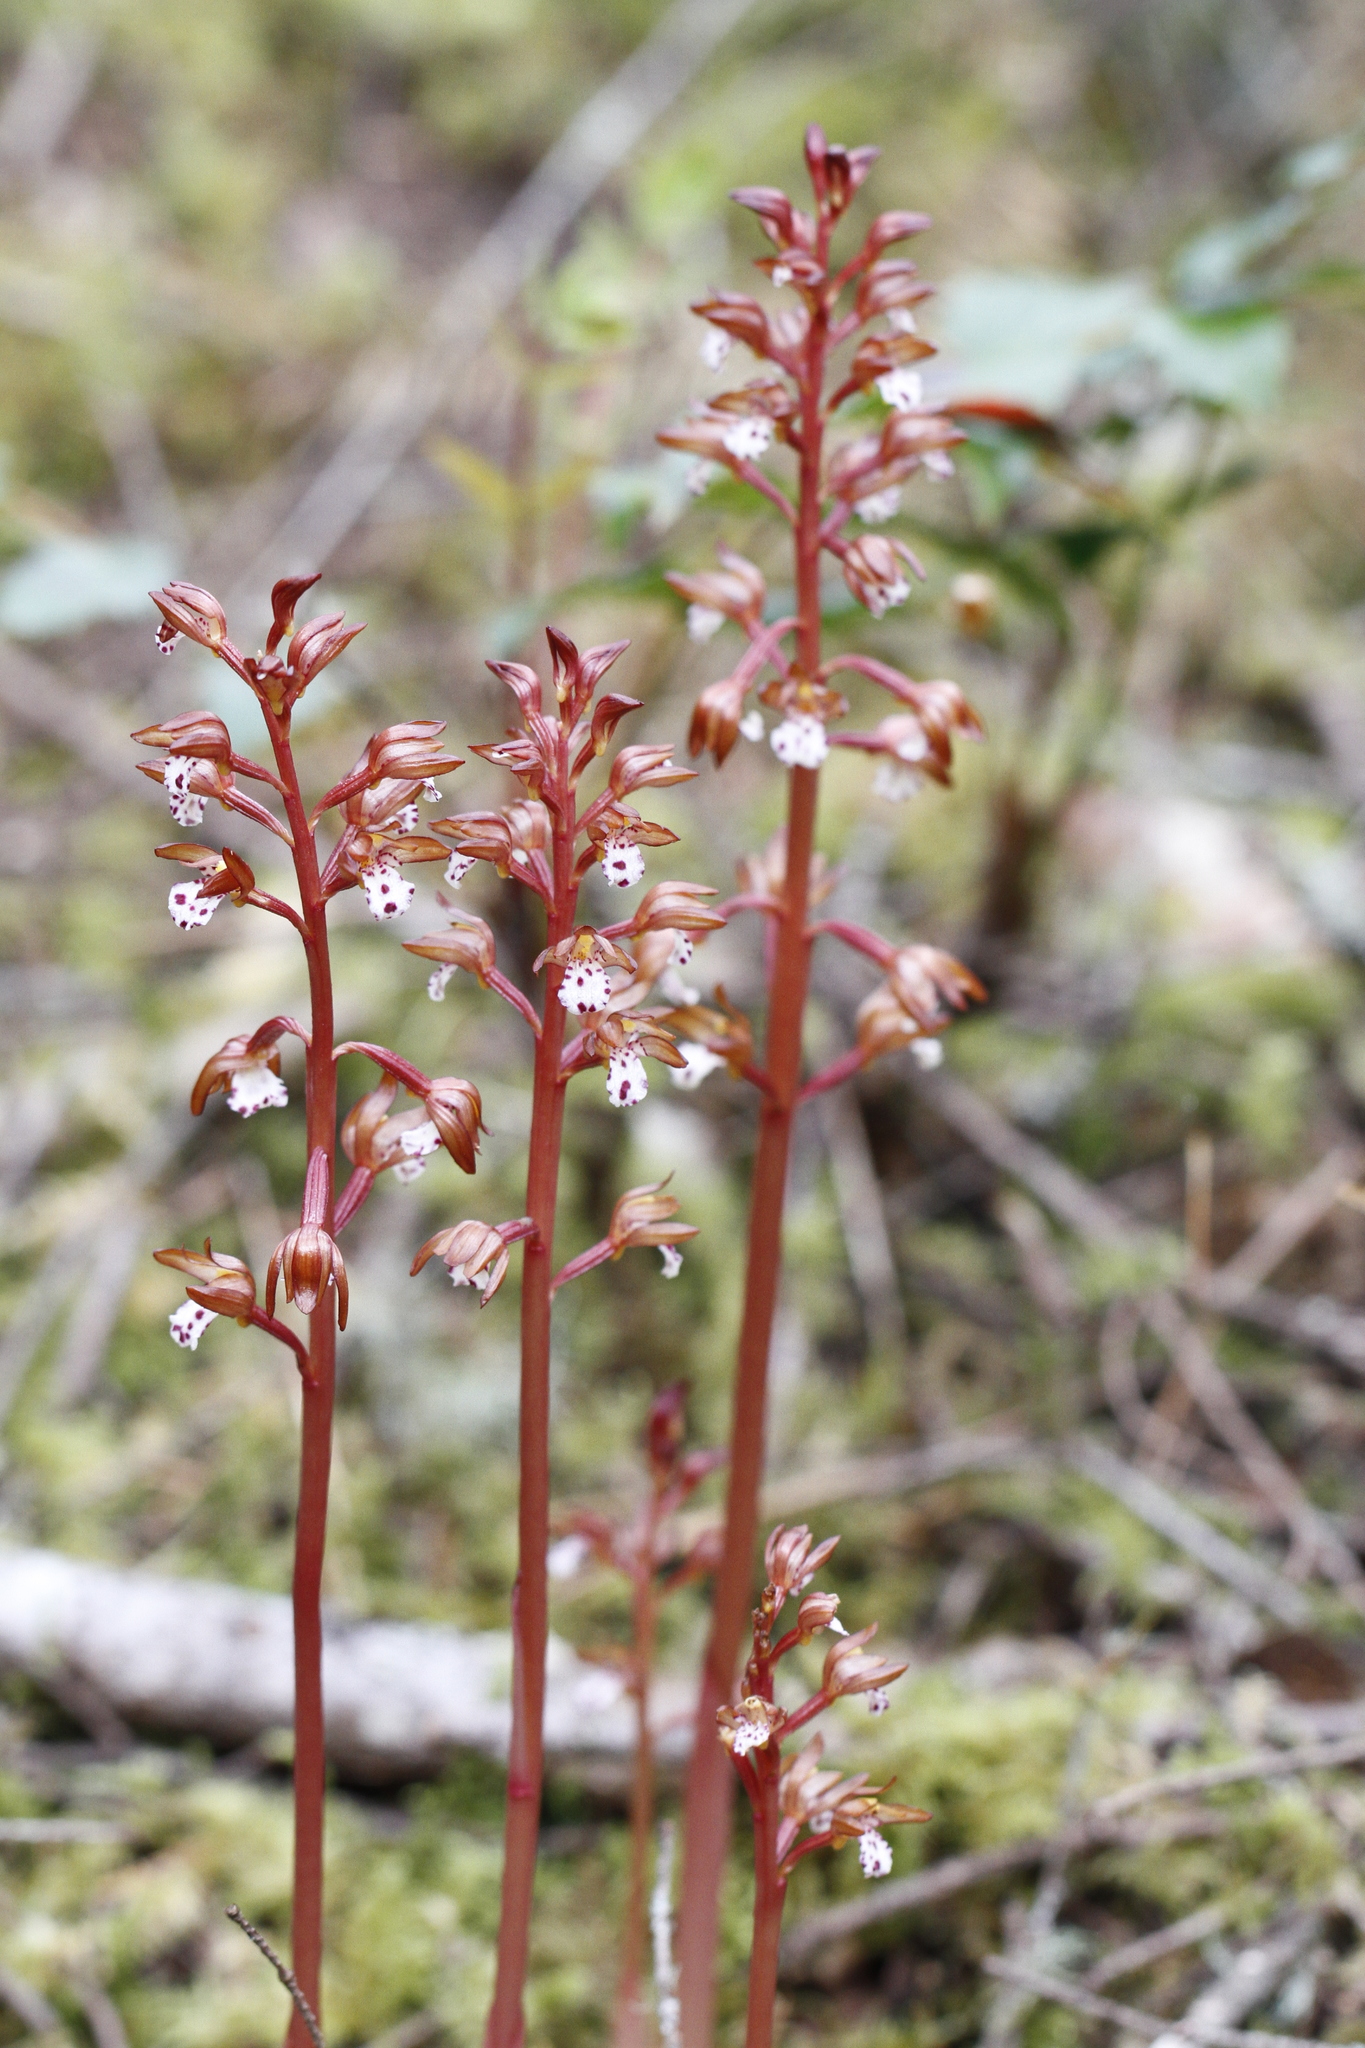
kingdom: Plantae
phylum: Tracheophyta
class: Liliopsida
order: Asparagales
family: Orchidaceae
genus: Corallorhiza
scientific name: Corallorhiza maculata
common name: Spotted coralroot
